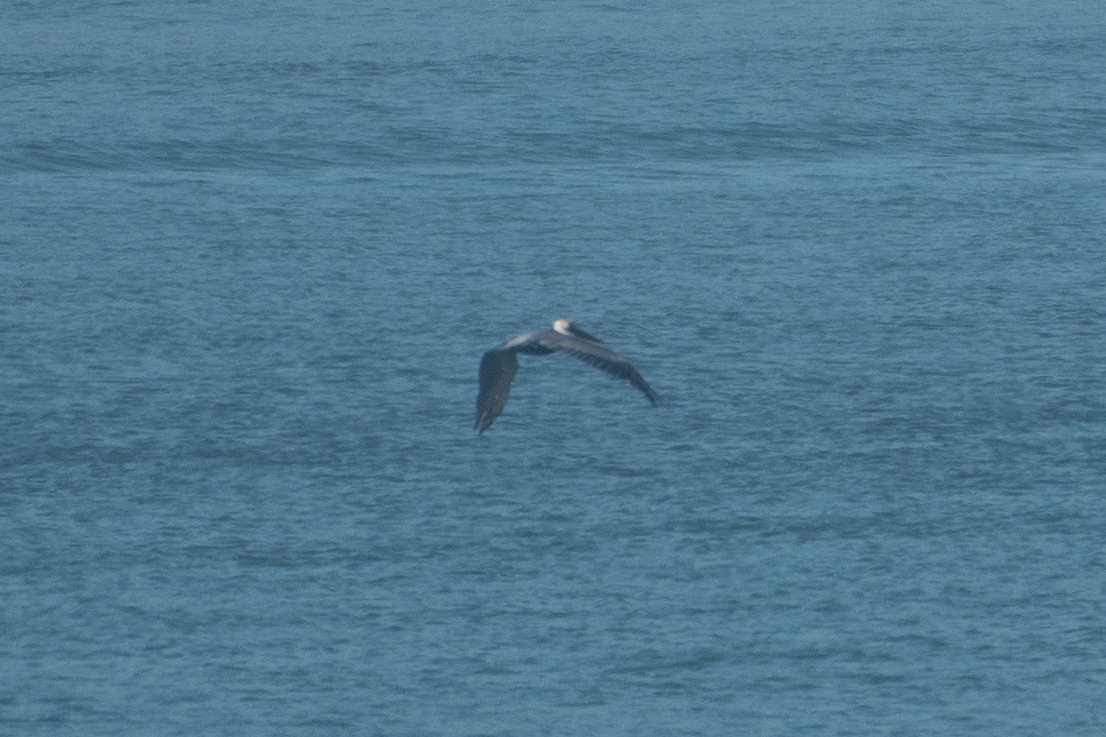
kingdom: Animalia
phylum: Chordata
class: Aves
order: Pelecaniformes
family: Pelecanidae
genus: Pelecanus
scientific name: Pelecanus occidentalis
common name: Brown pelican
